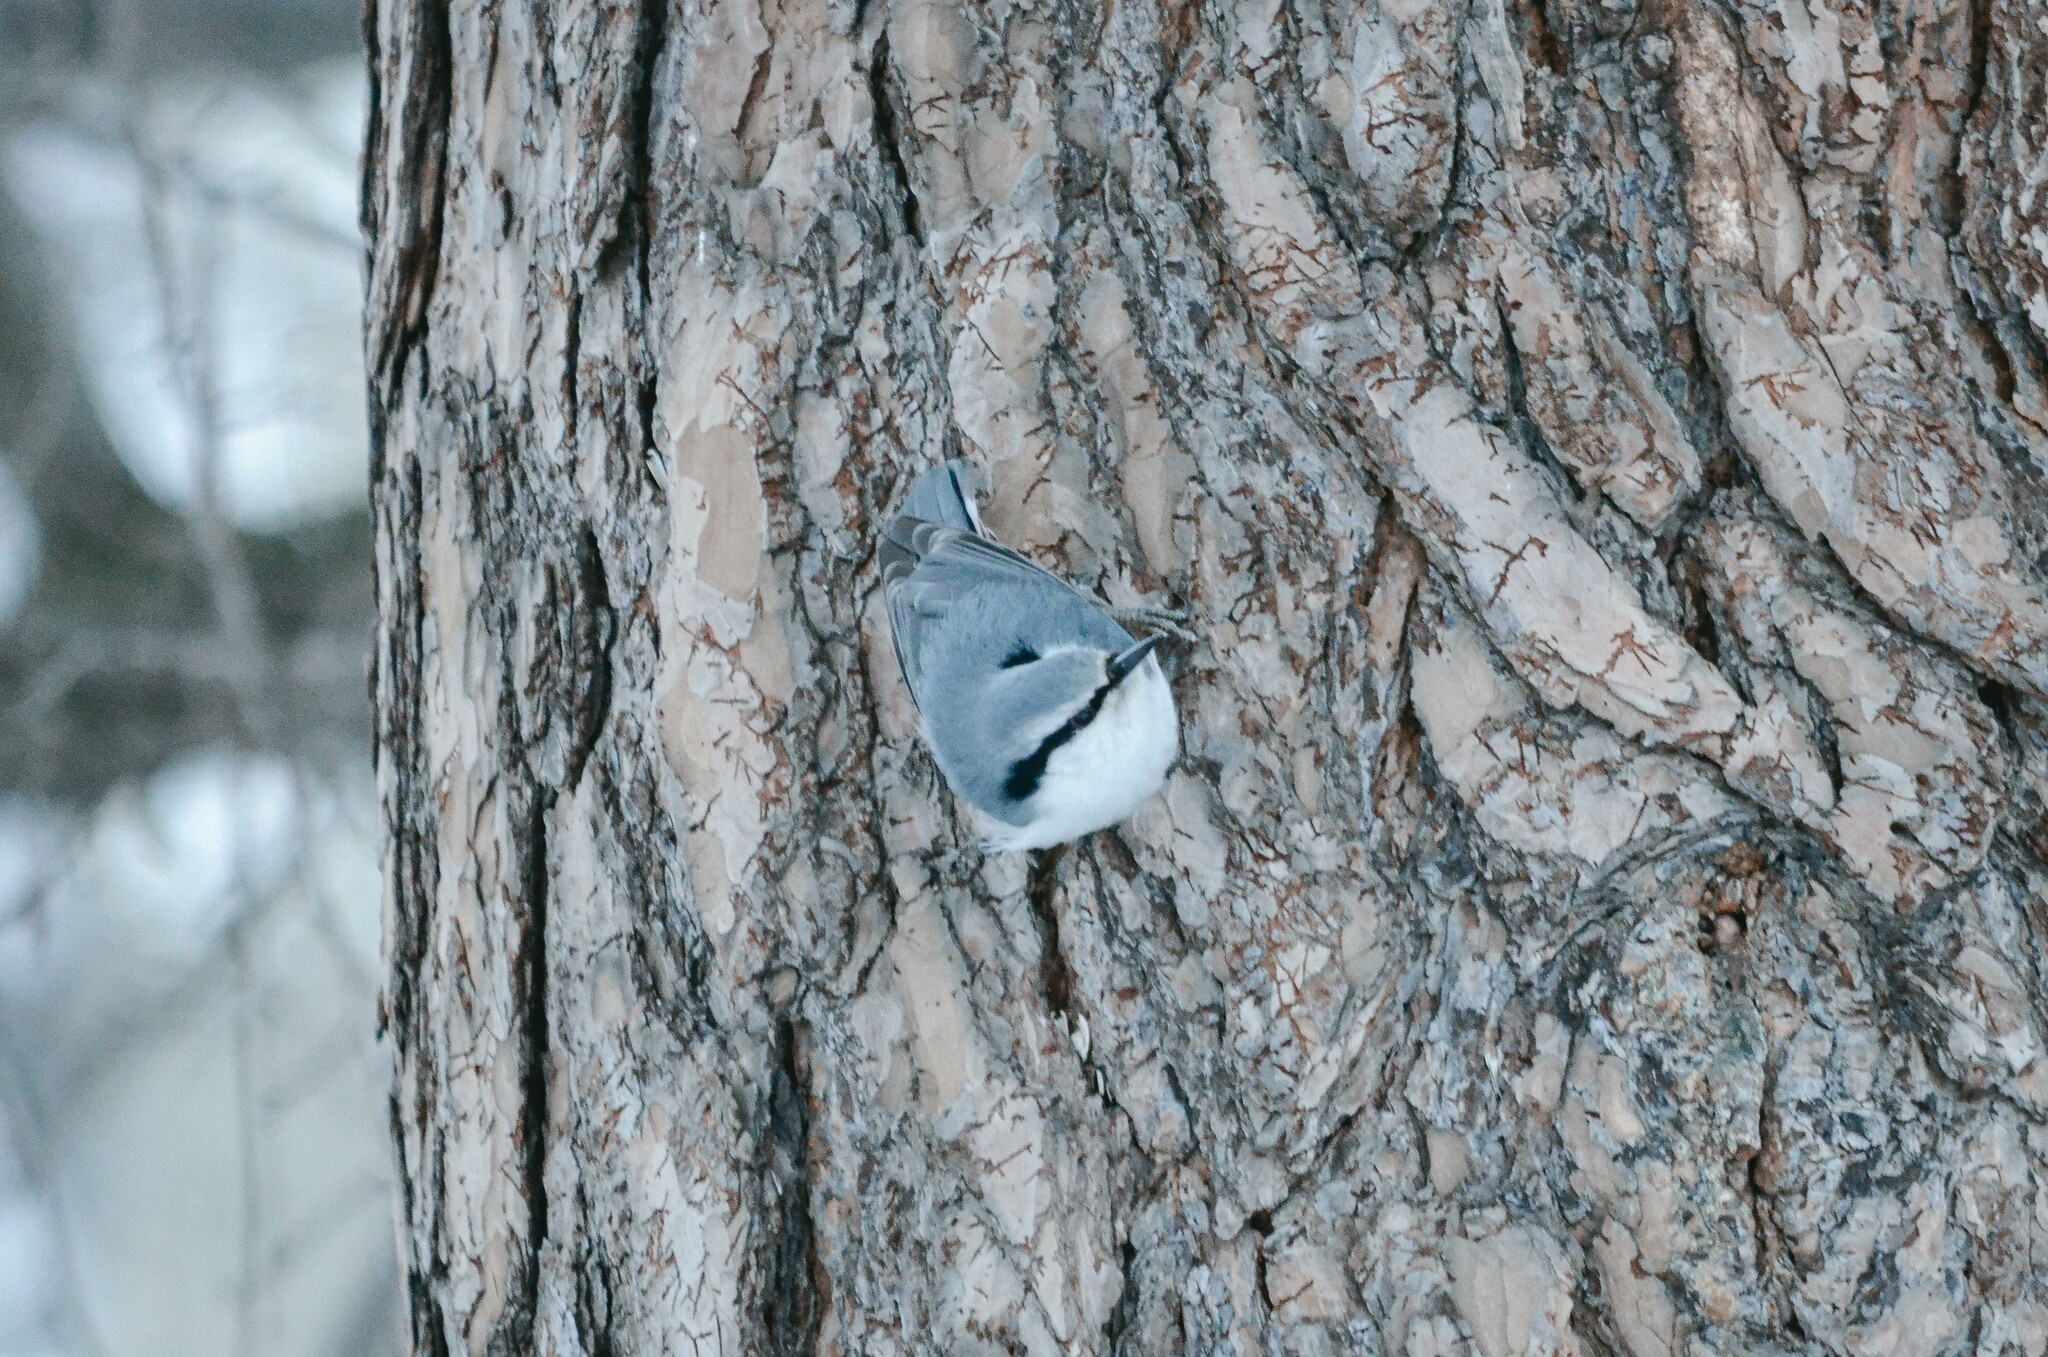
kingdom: Animalia
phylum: Chordata
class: Aves
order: Passeriformes
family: Sittidae
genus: Sitta
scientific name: Sitta europaea
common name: Eurasian nuthatch
